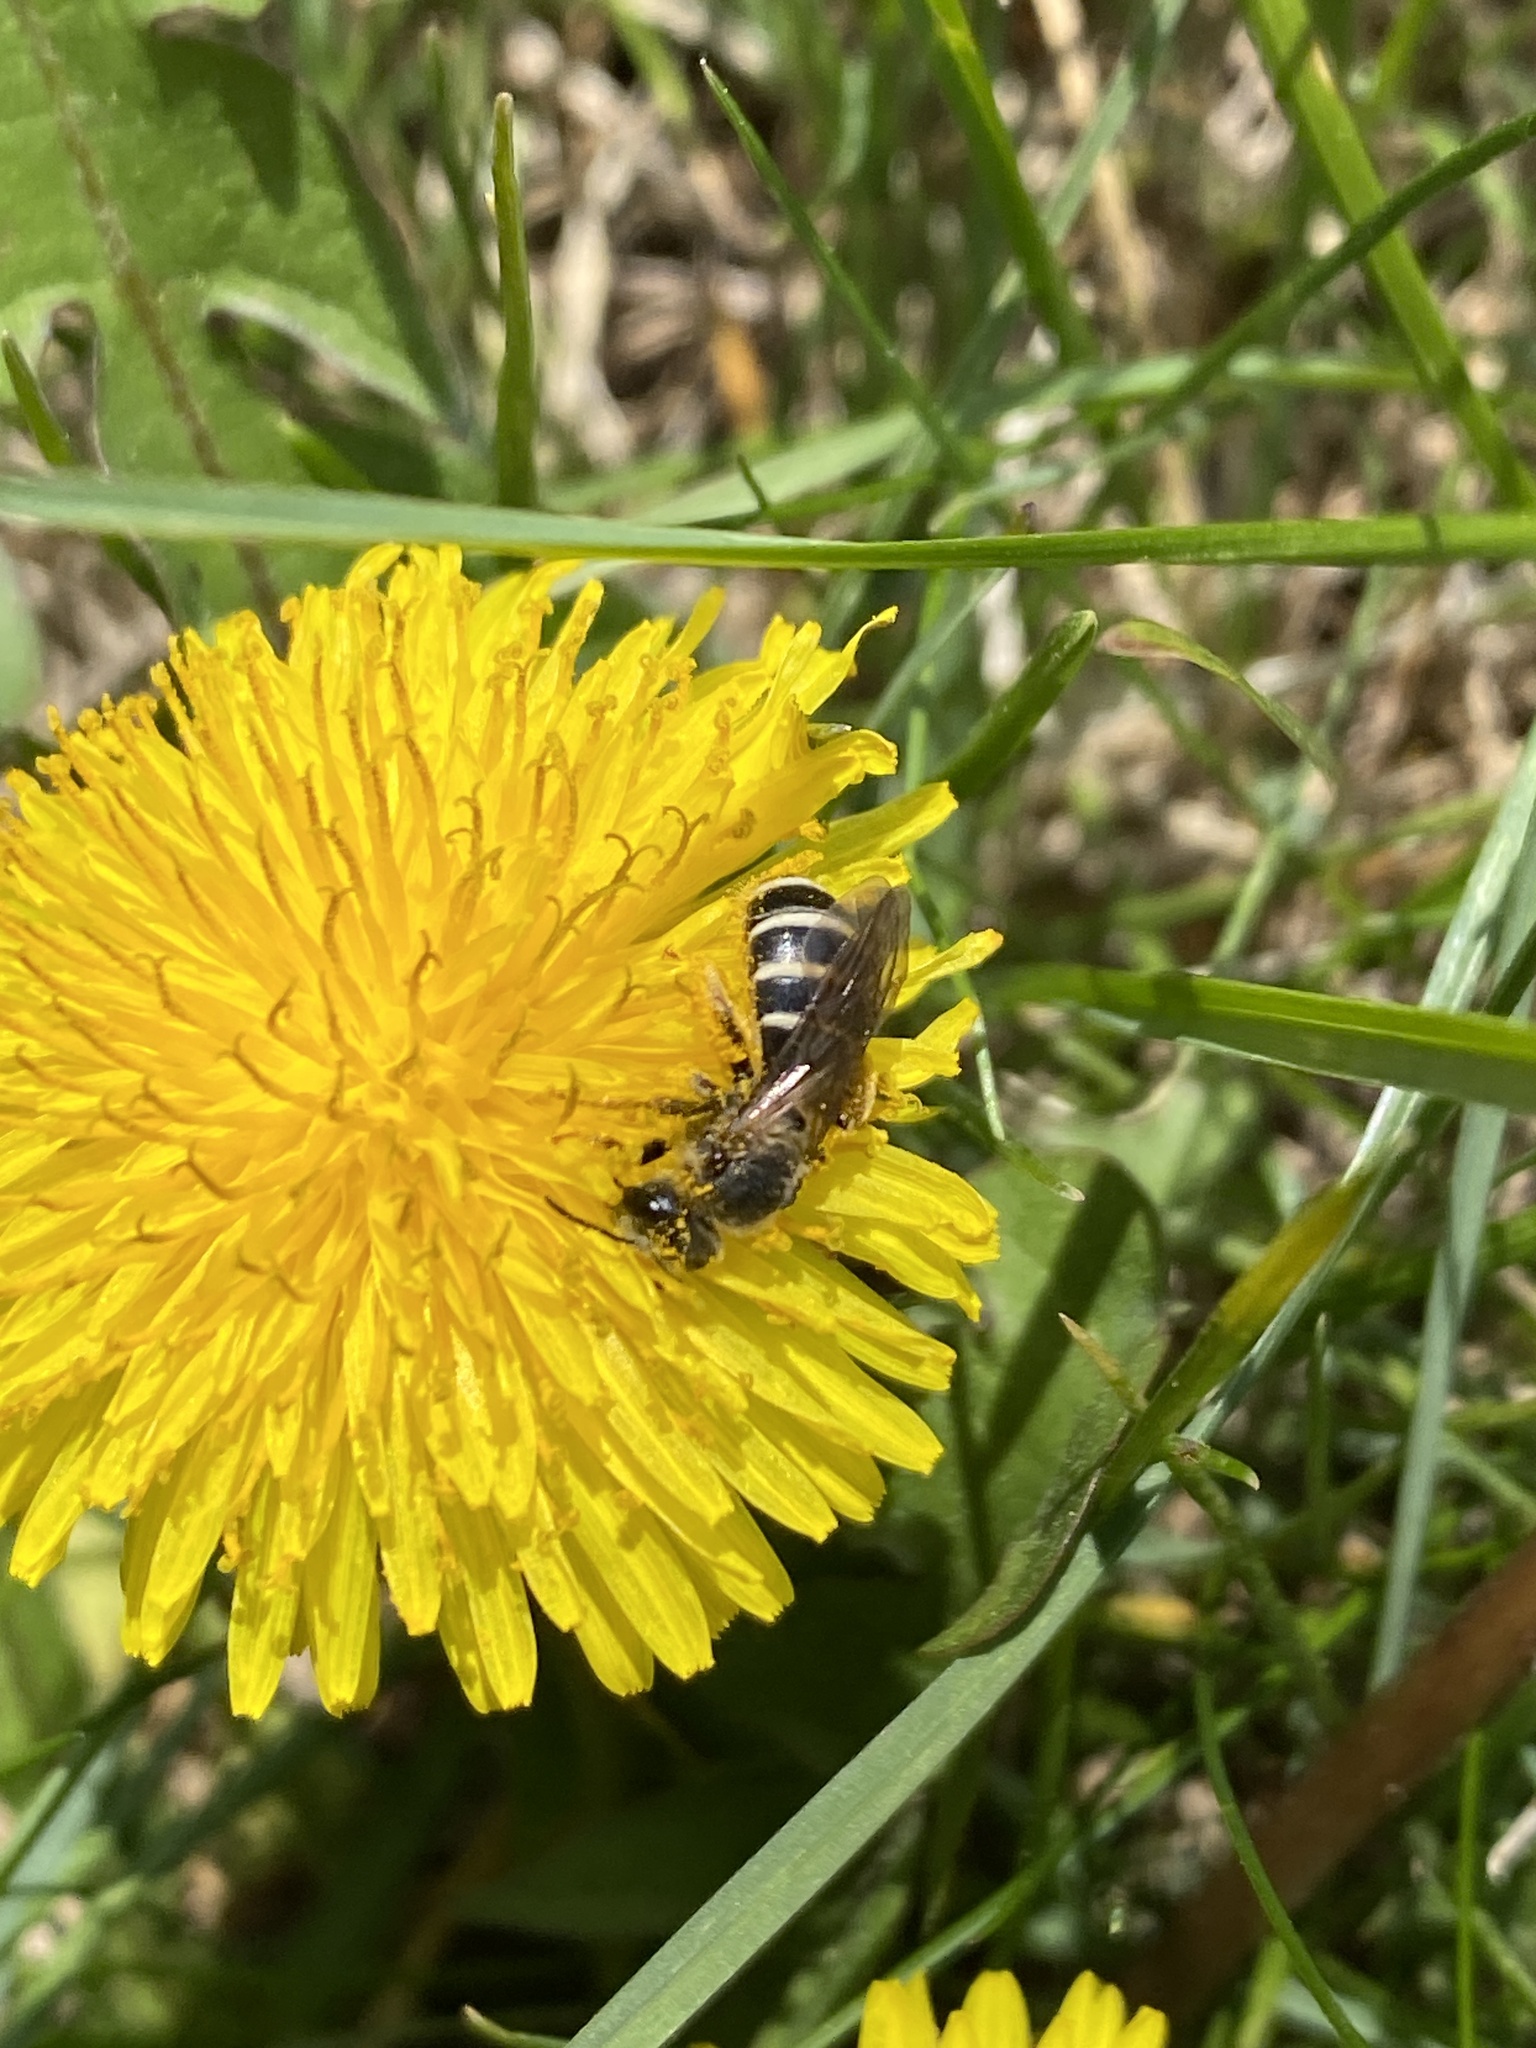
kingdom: Animalia
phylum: Arthropoda
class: Insecta
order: Hymenoptera
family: Halictidae
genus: Halictus
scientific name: Halictus rubicundus
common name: Orange-legged furrow bee
